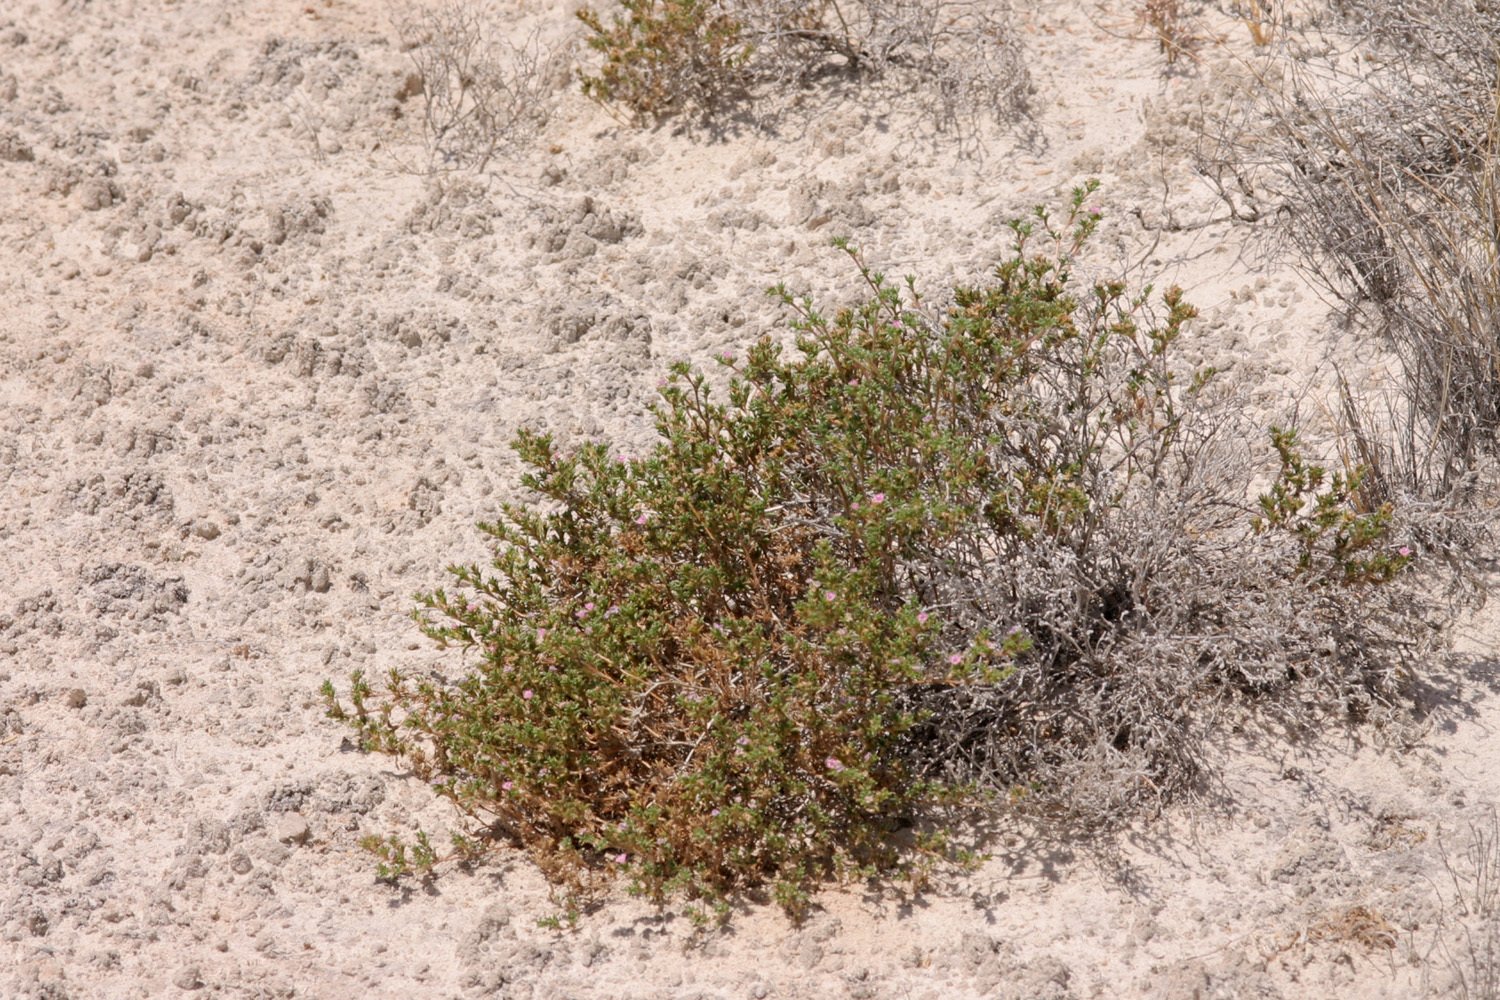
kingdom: Plantae
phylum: Tracheophyta
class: Magnoliopsida
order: Boraginales
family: Ehretiaceae
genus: Tiquilia
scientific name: Tiquilia hispidissima
